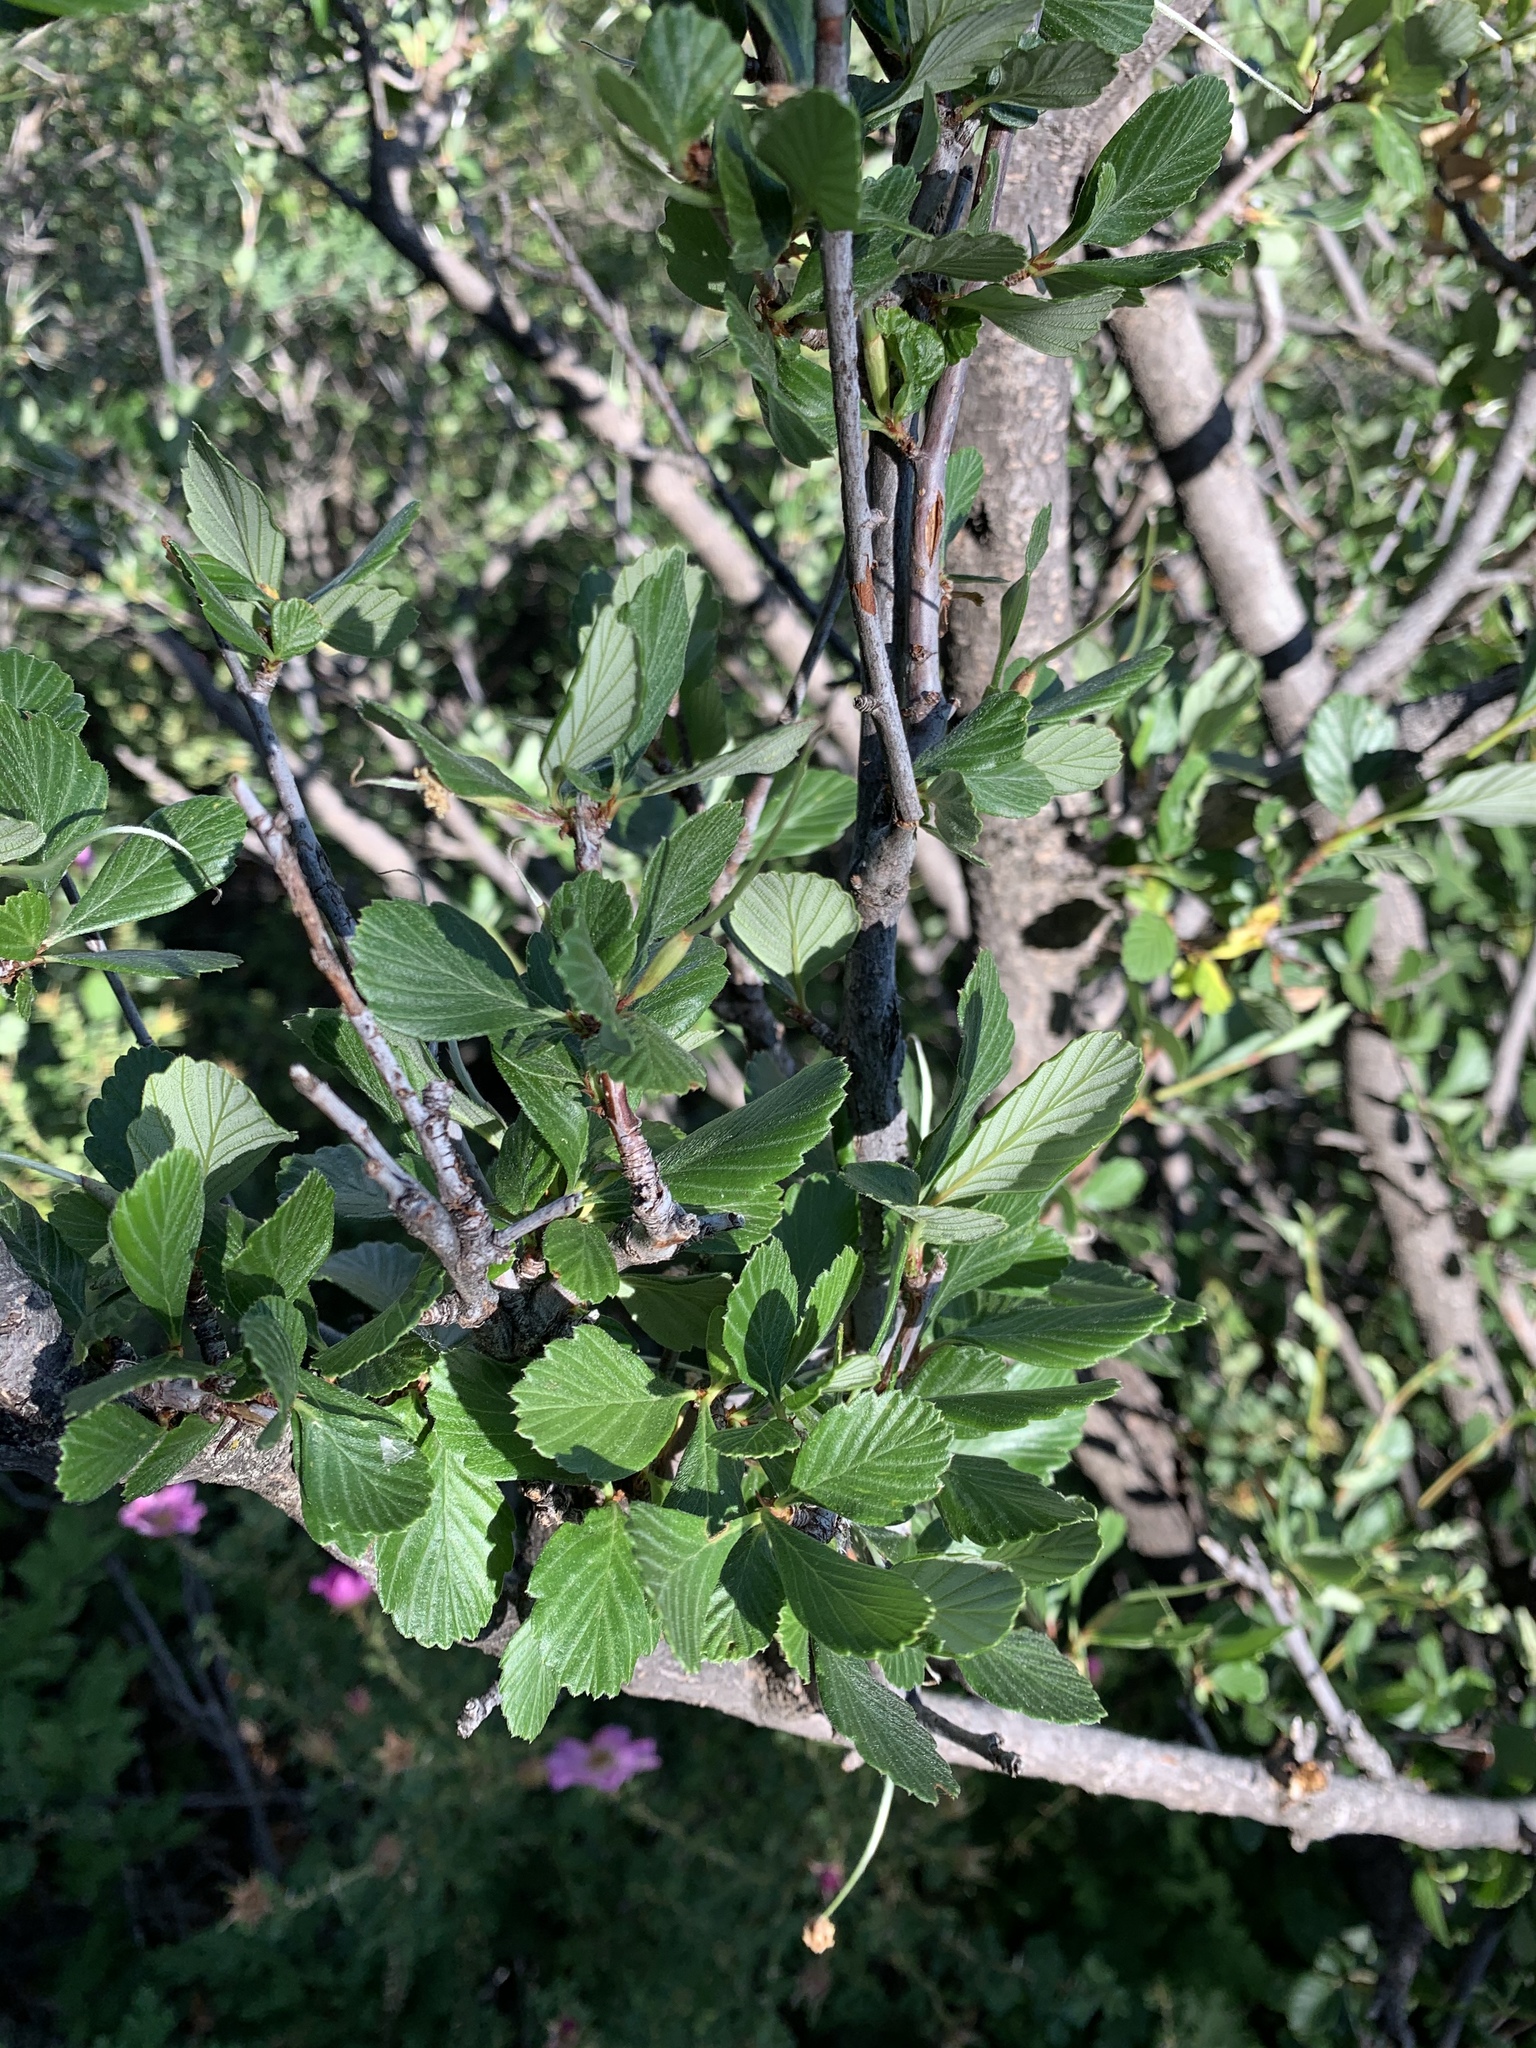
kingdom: Plantae
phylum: Tracheophyta
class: Magnoliopsida
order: Rosales
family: Rosaceae
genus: Cercocarpus
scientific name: Cercocarpus montanus
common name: Alder-leaf cercocarpus
